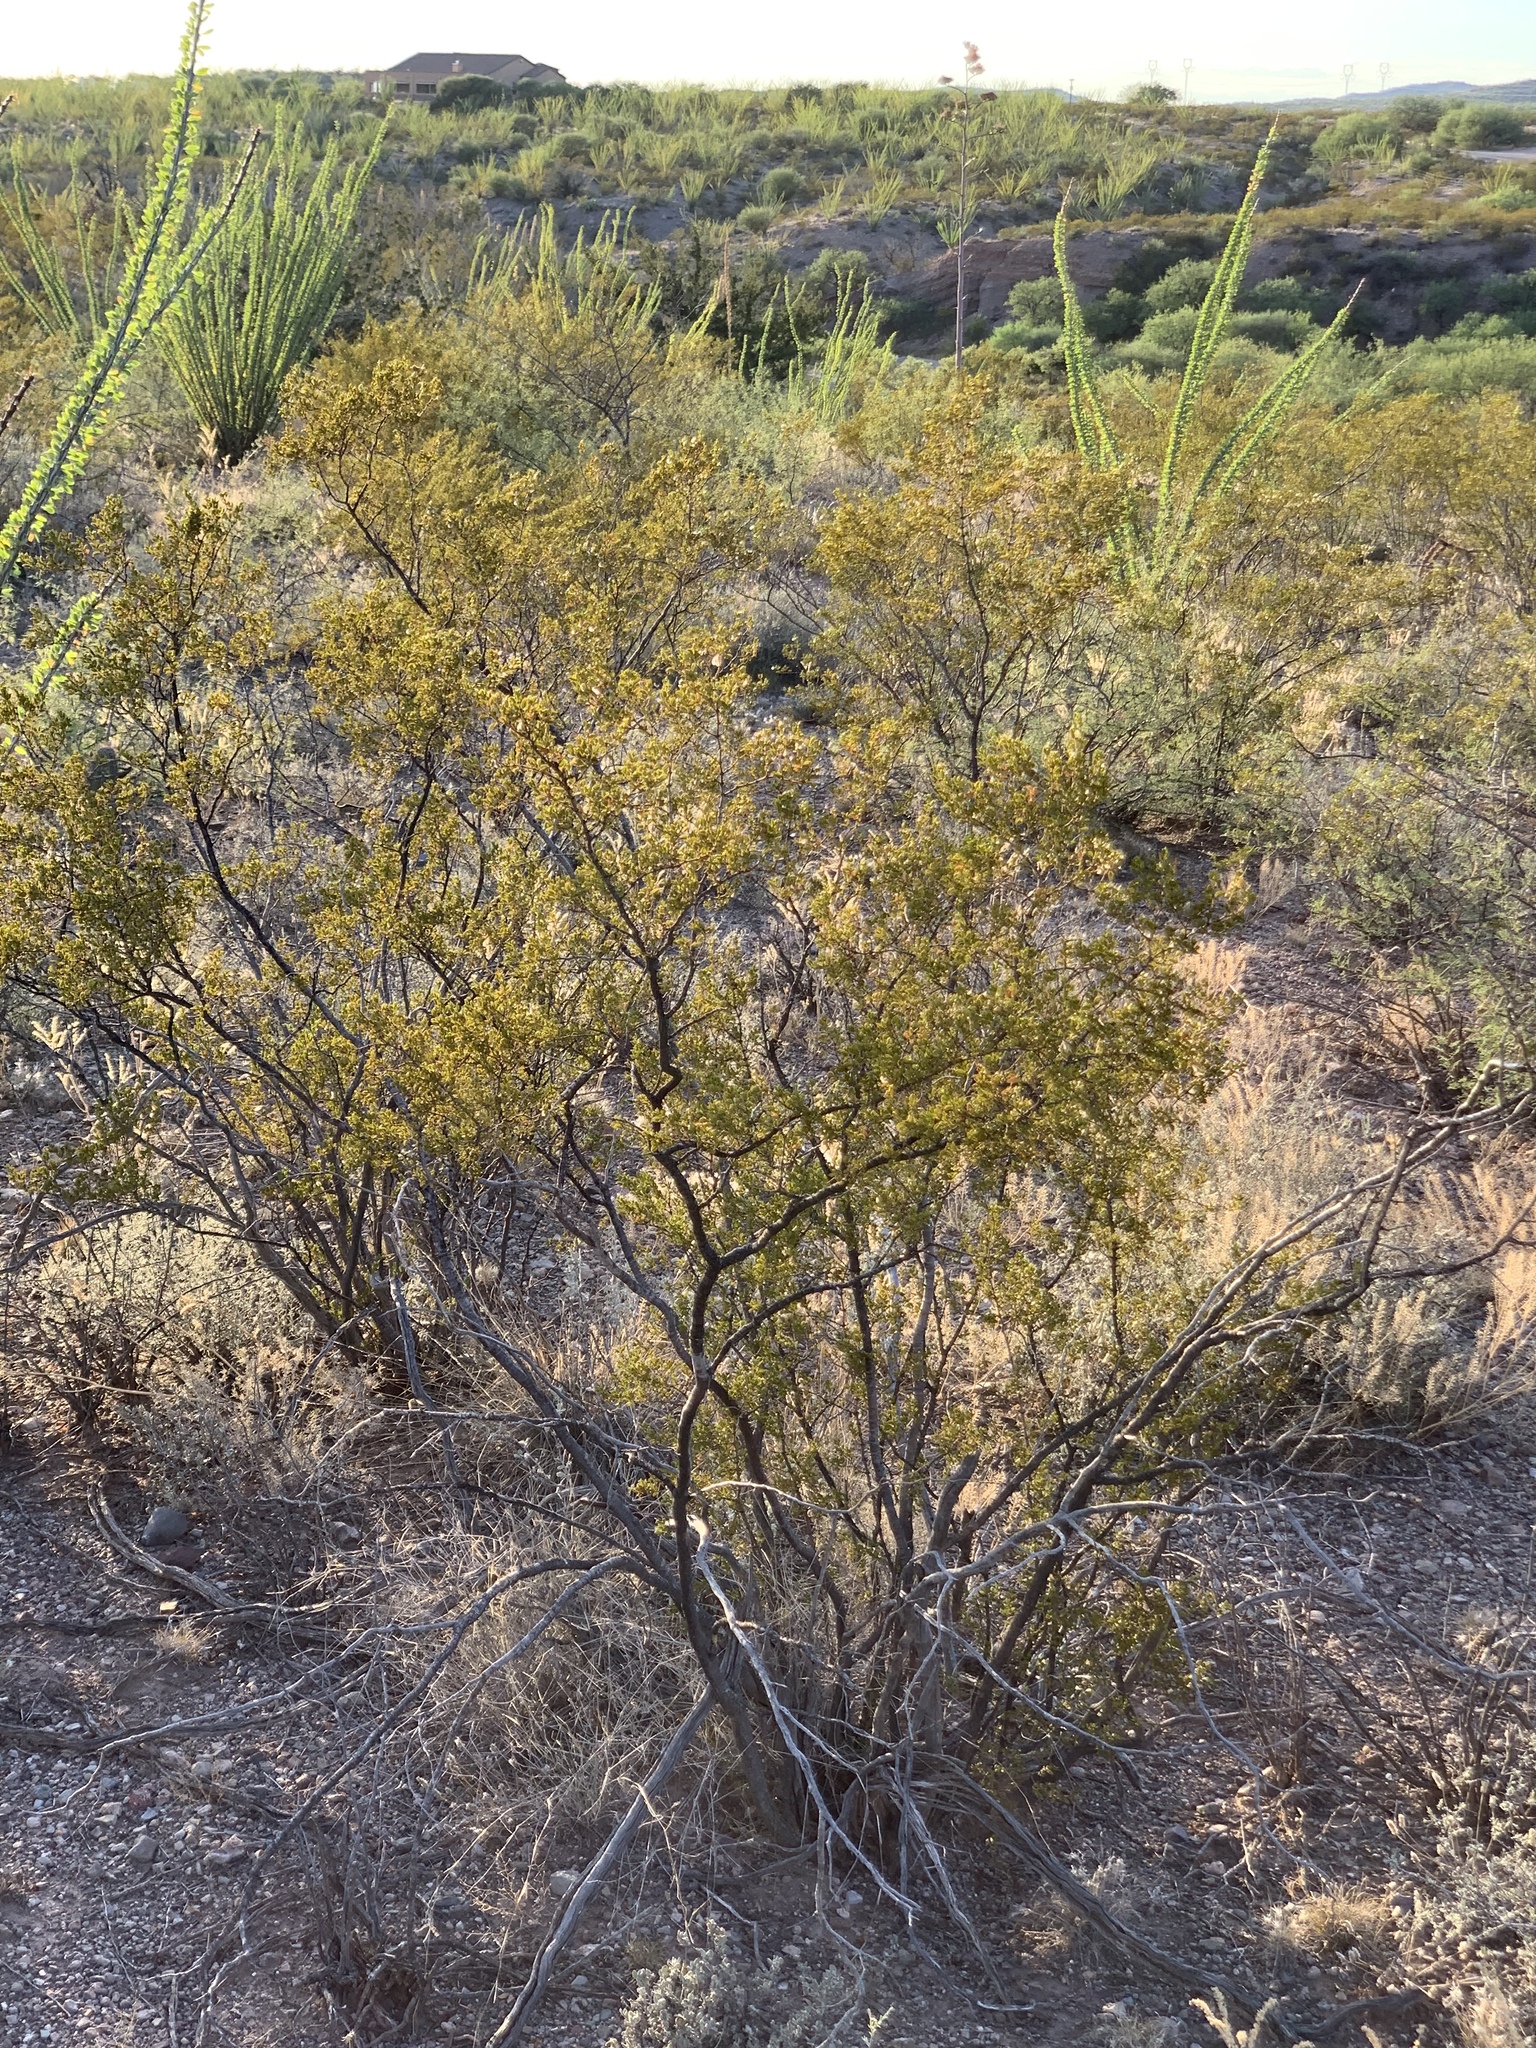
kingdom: Plantae
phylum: Tracheophyta
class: Magnoliopsida
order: Zygophyllales
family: Zygophyllaceae
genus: Larrea
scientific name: Larrea tridentata
